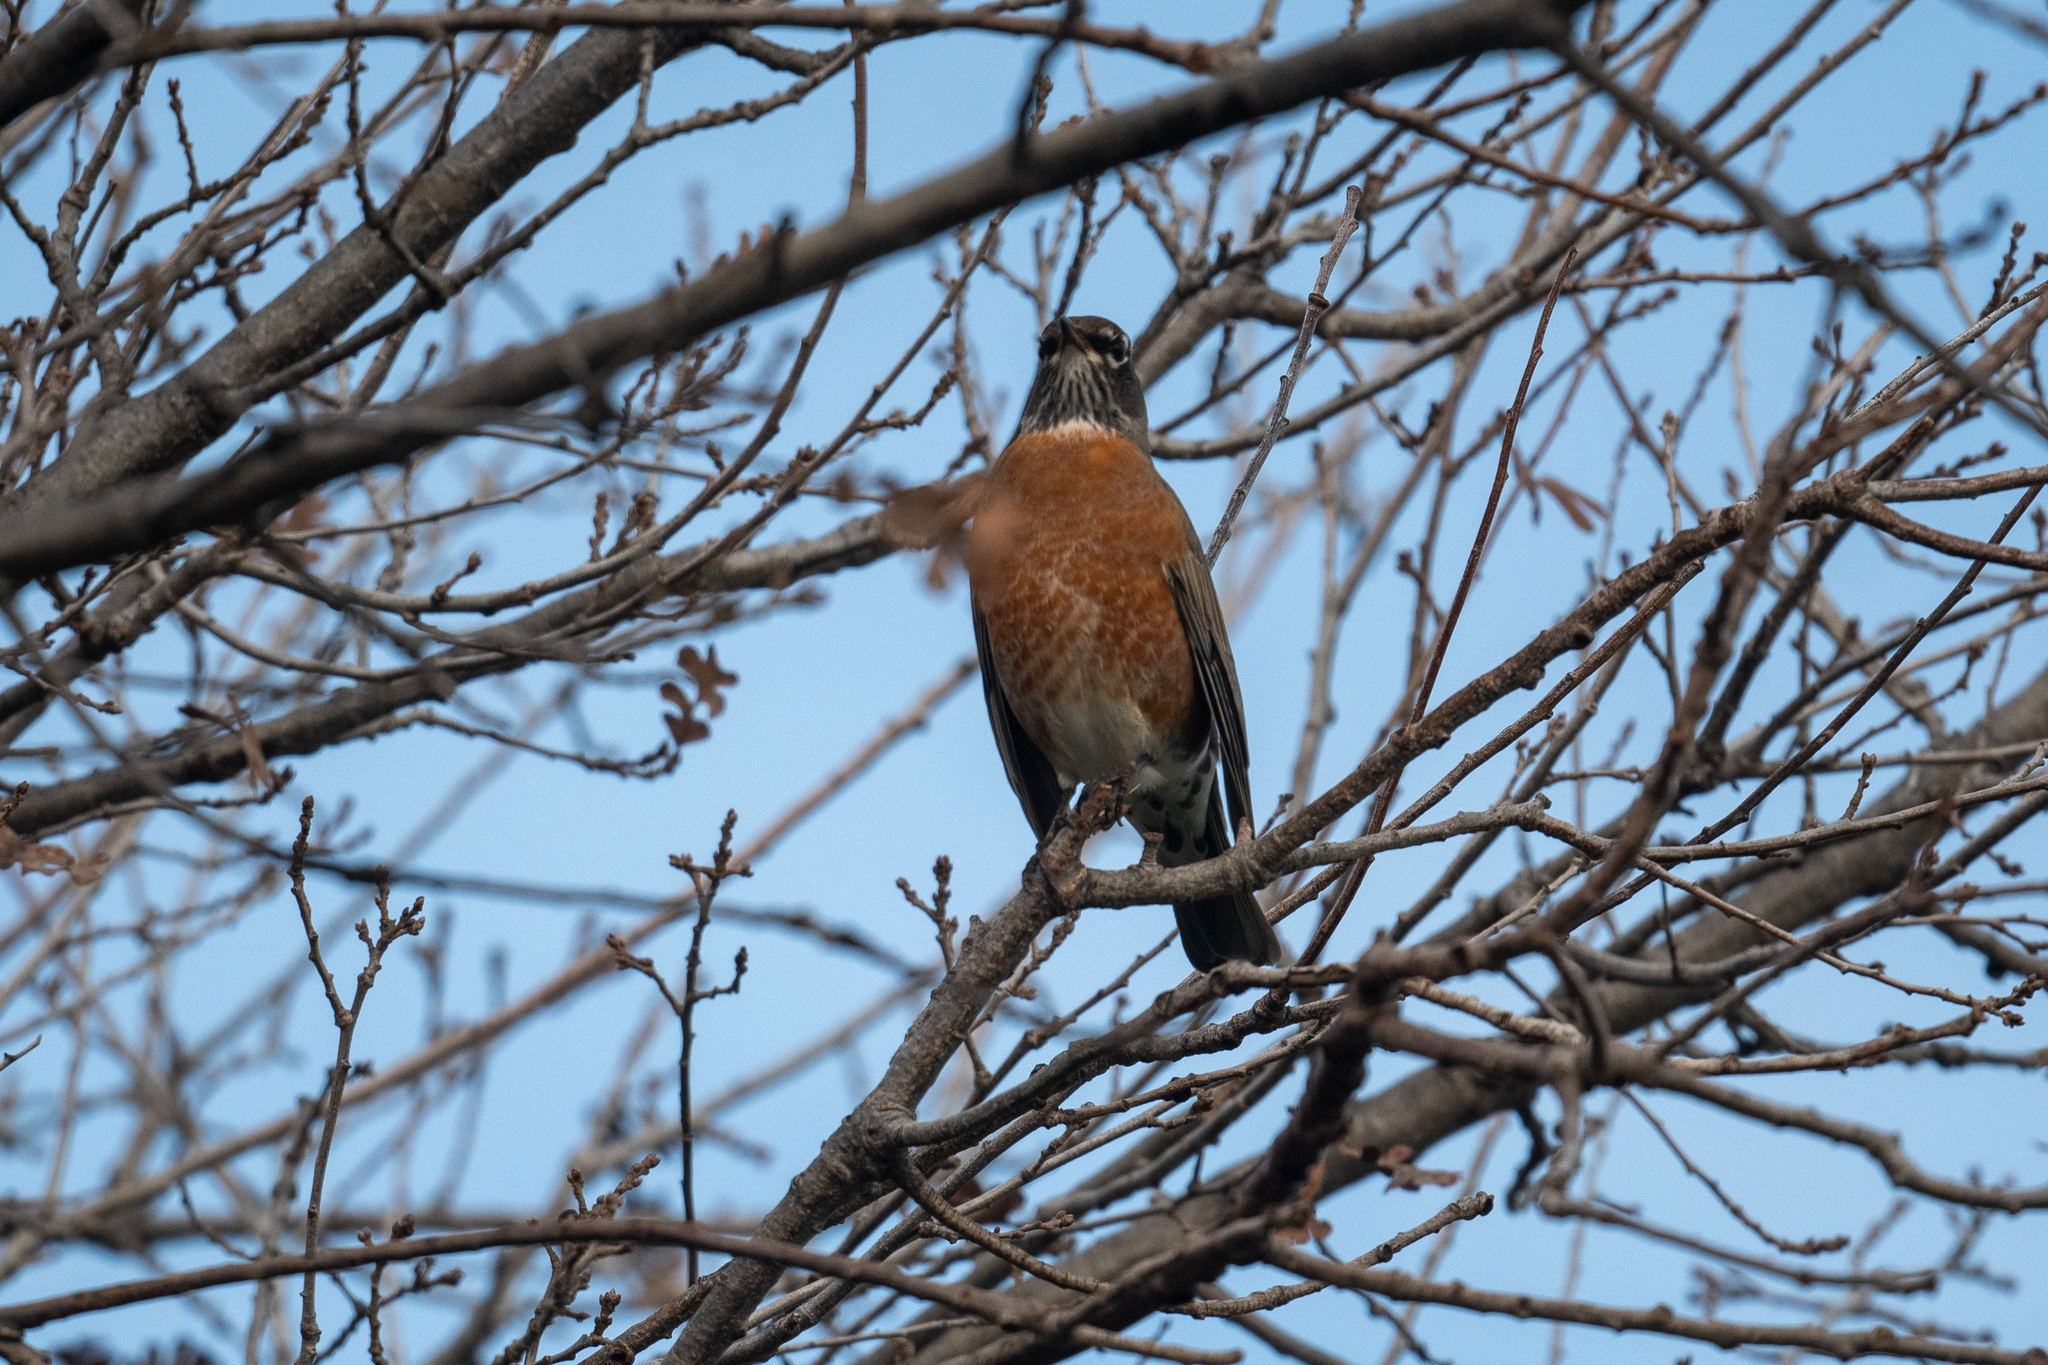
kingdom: Animalia
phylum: Chordata
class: Aves
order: Passeriformes
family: Turdidae
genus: Turdus
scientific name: Turdus migratorius
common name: American robin
